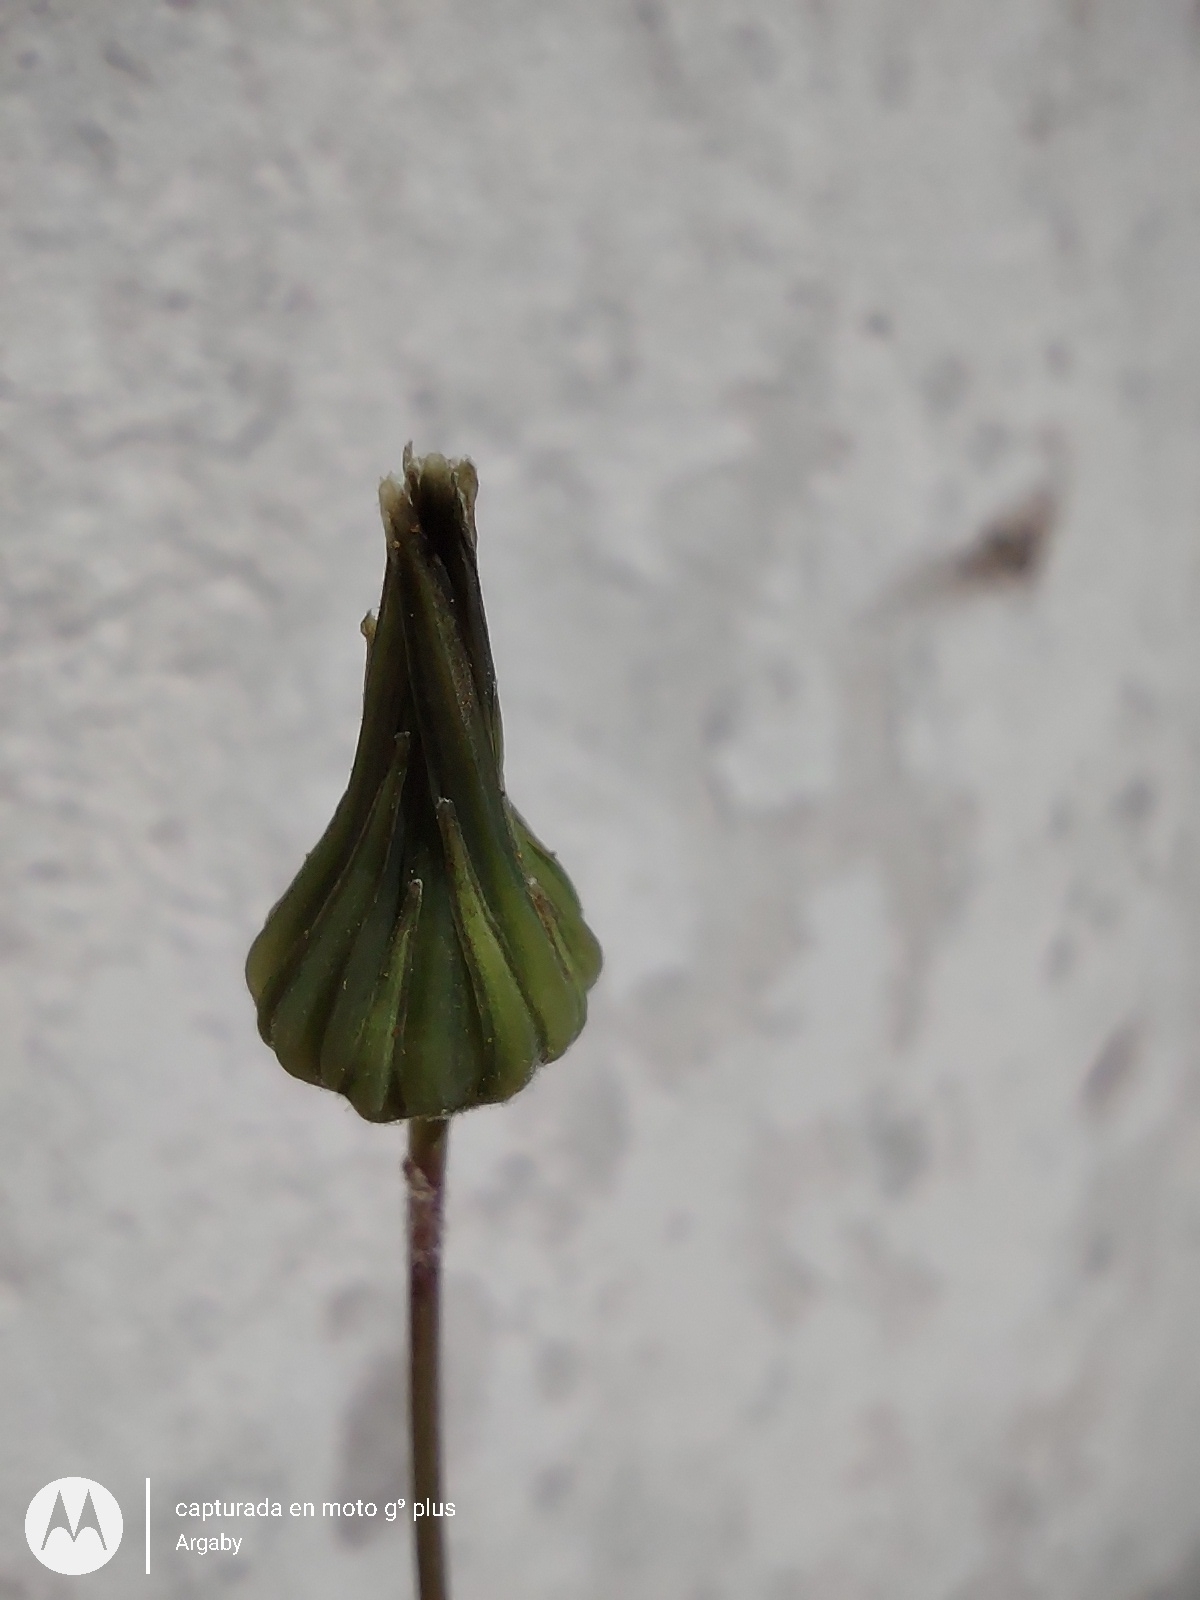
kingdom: Plantae
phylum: Tracheophyta
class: Magnoliopsida
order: Asterales
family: Asteraceae
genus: Sonchus
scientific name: Sonchus oleraceus
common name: Common sowthistle
